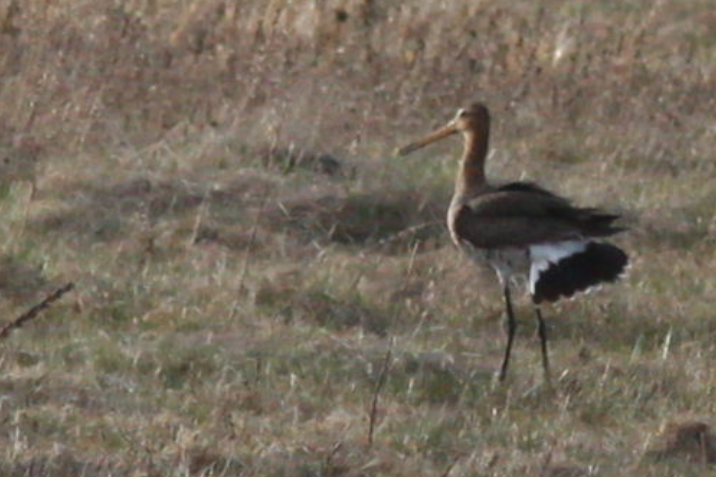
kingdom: Animalia
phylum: Chordata
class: Aves
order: Charadriiformes
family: Scolopacidae
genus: Limosa
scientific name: Limosa limosa
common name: Black-tailed godwit
